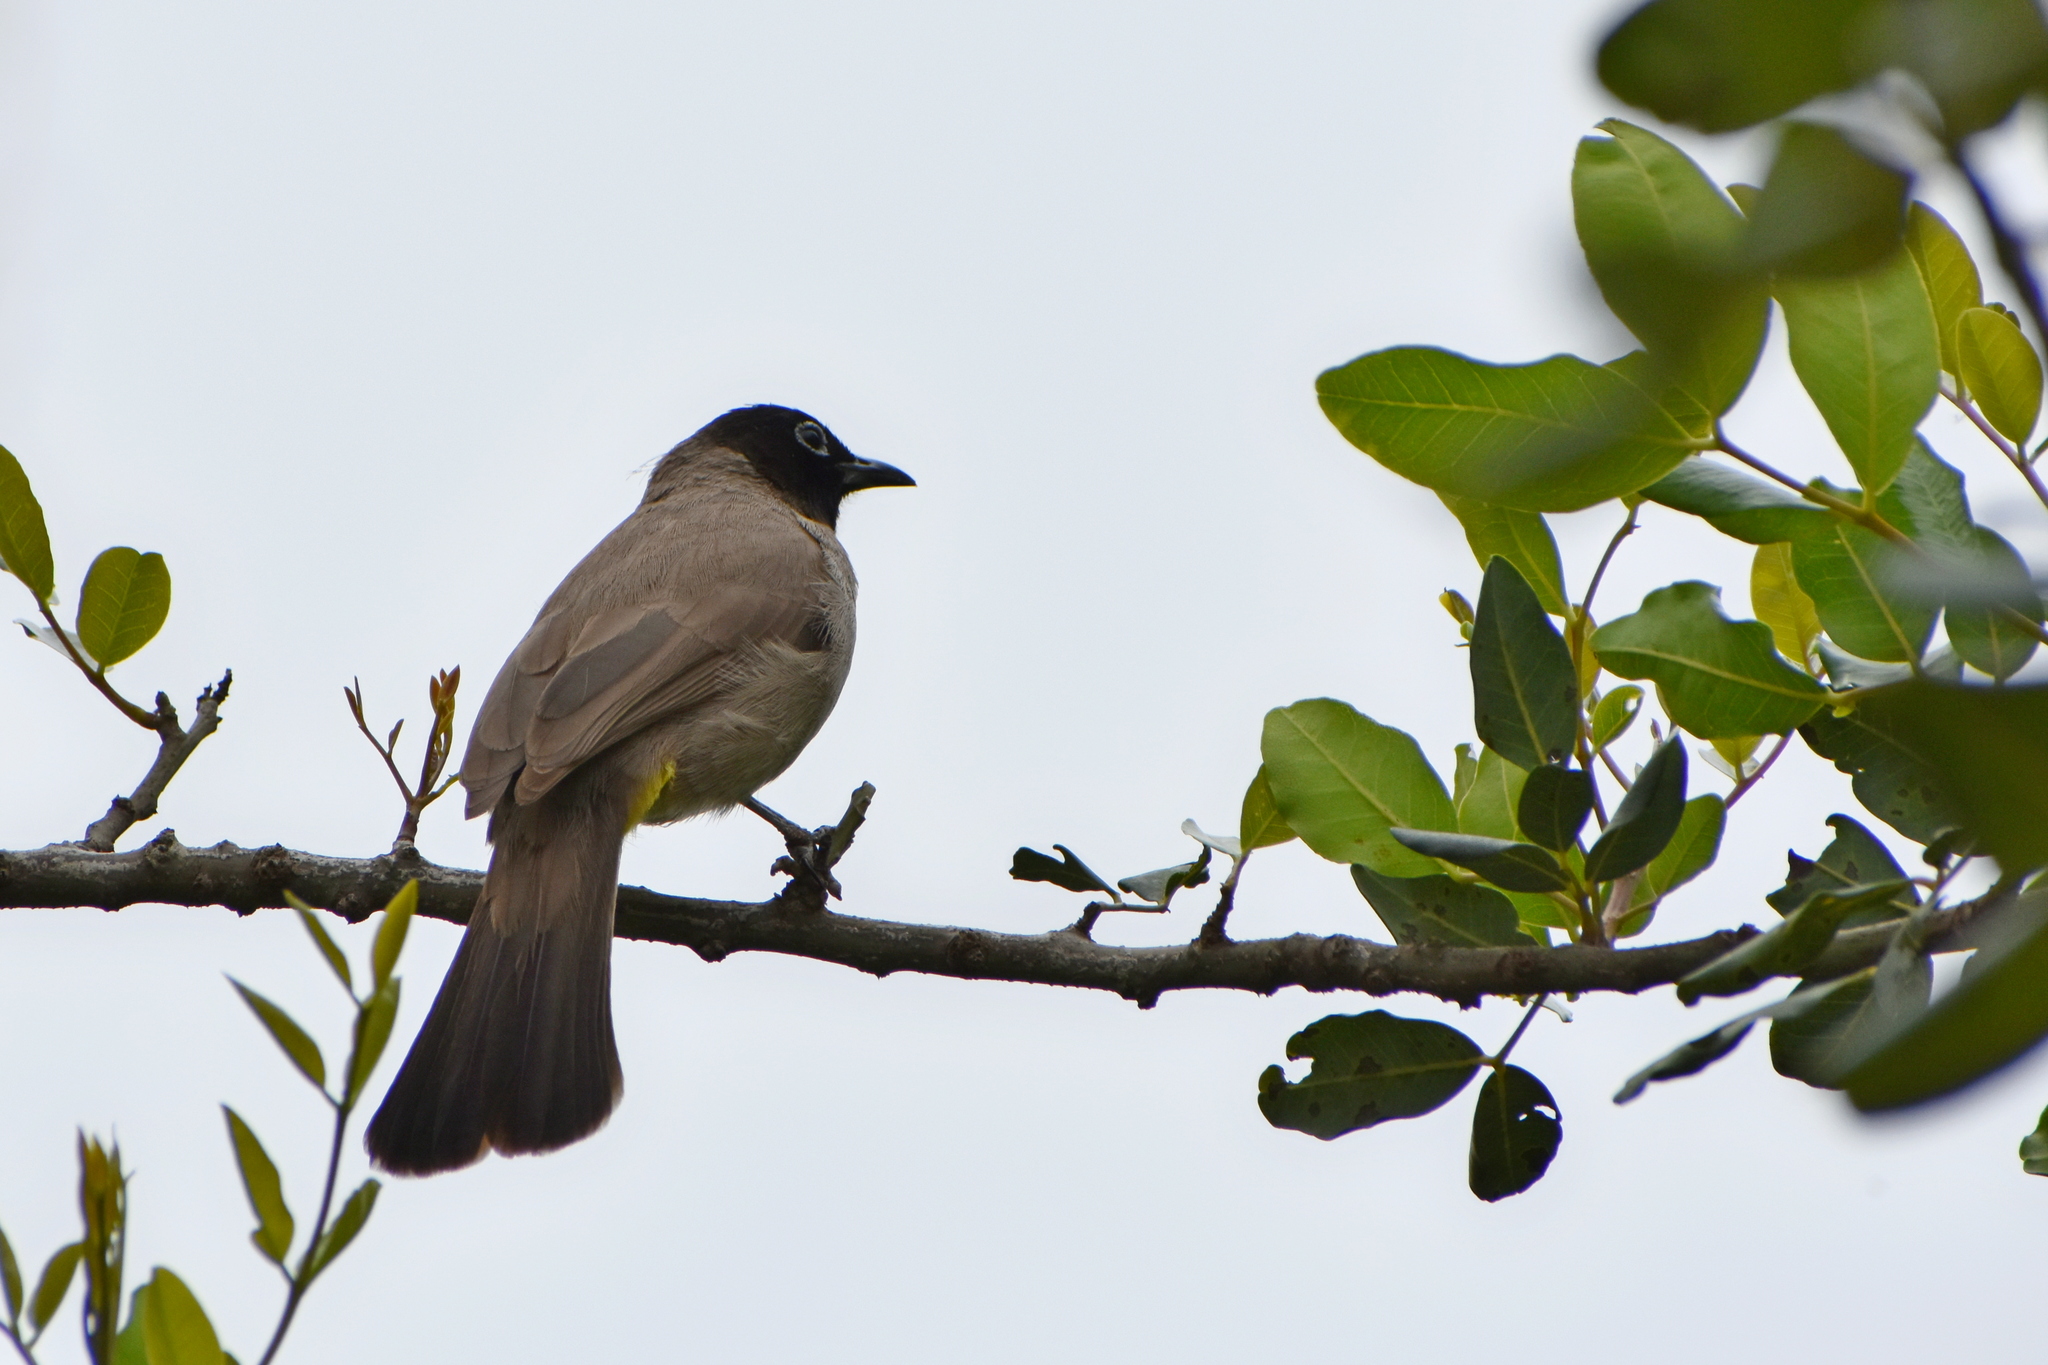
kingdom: Animalia
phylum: Chordata
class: Aves
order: Passeriformes
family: Pycnonotidae
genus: Pycnonotus
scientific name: Pycnonotus xanthopygos
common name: White-spectacled bulbul
